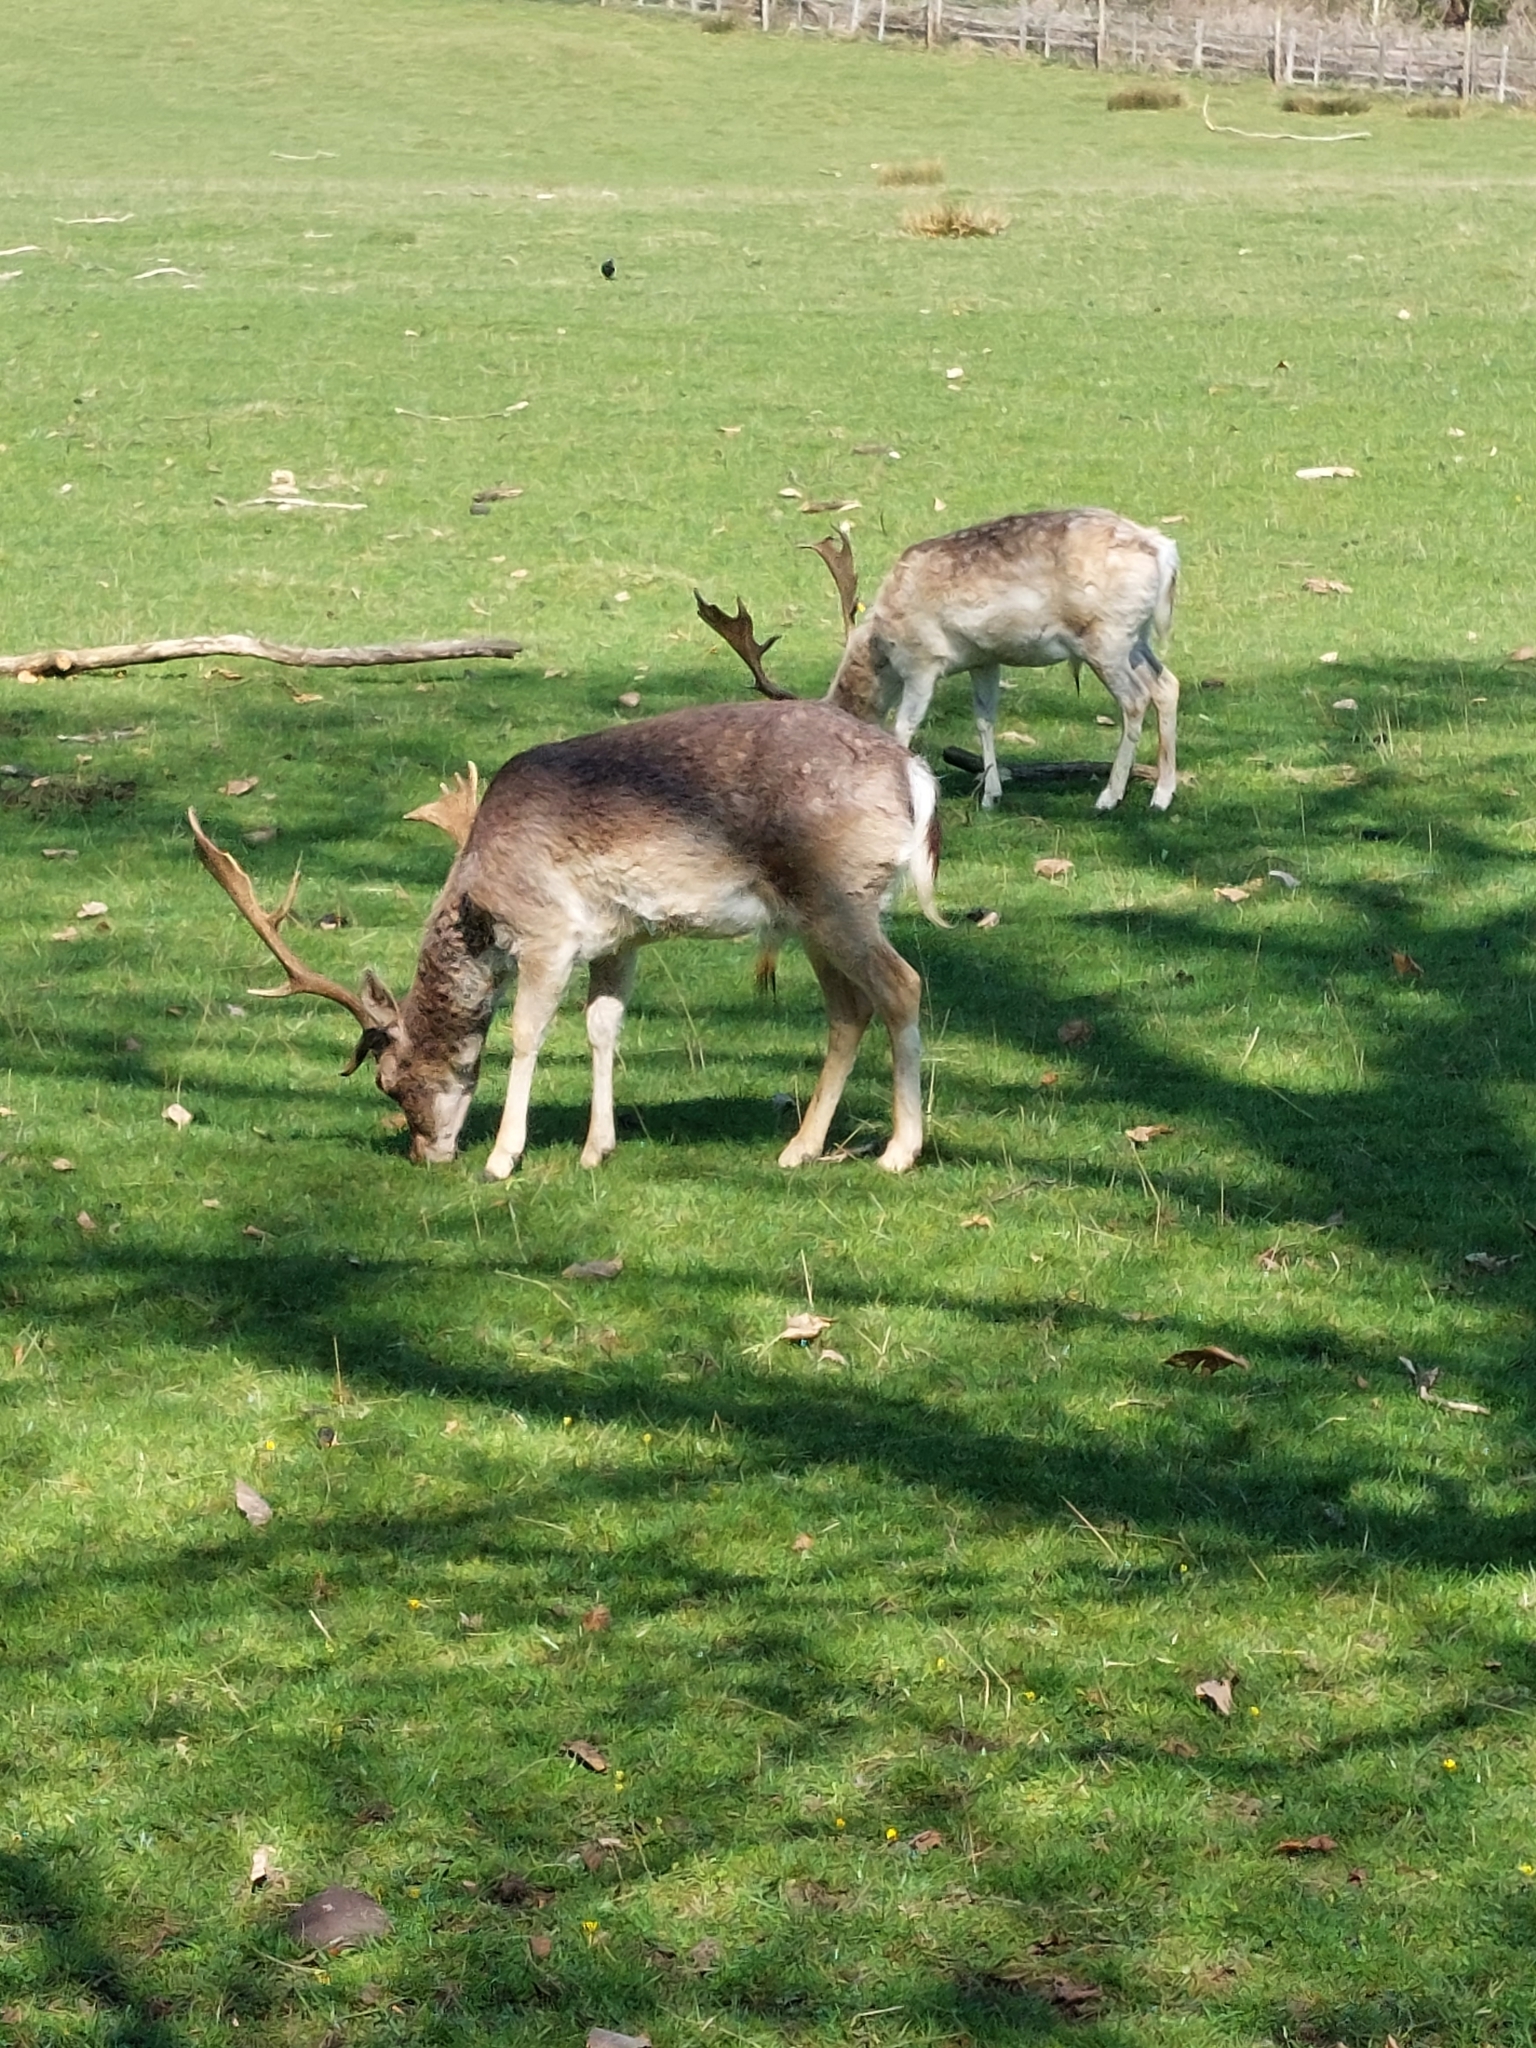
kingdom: Animalia
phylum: Chordata
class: Mammalia
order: Artiodactyla
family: Cervidae
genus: Dama
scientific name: Dama dama
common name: Fallow deer
